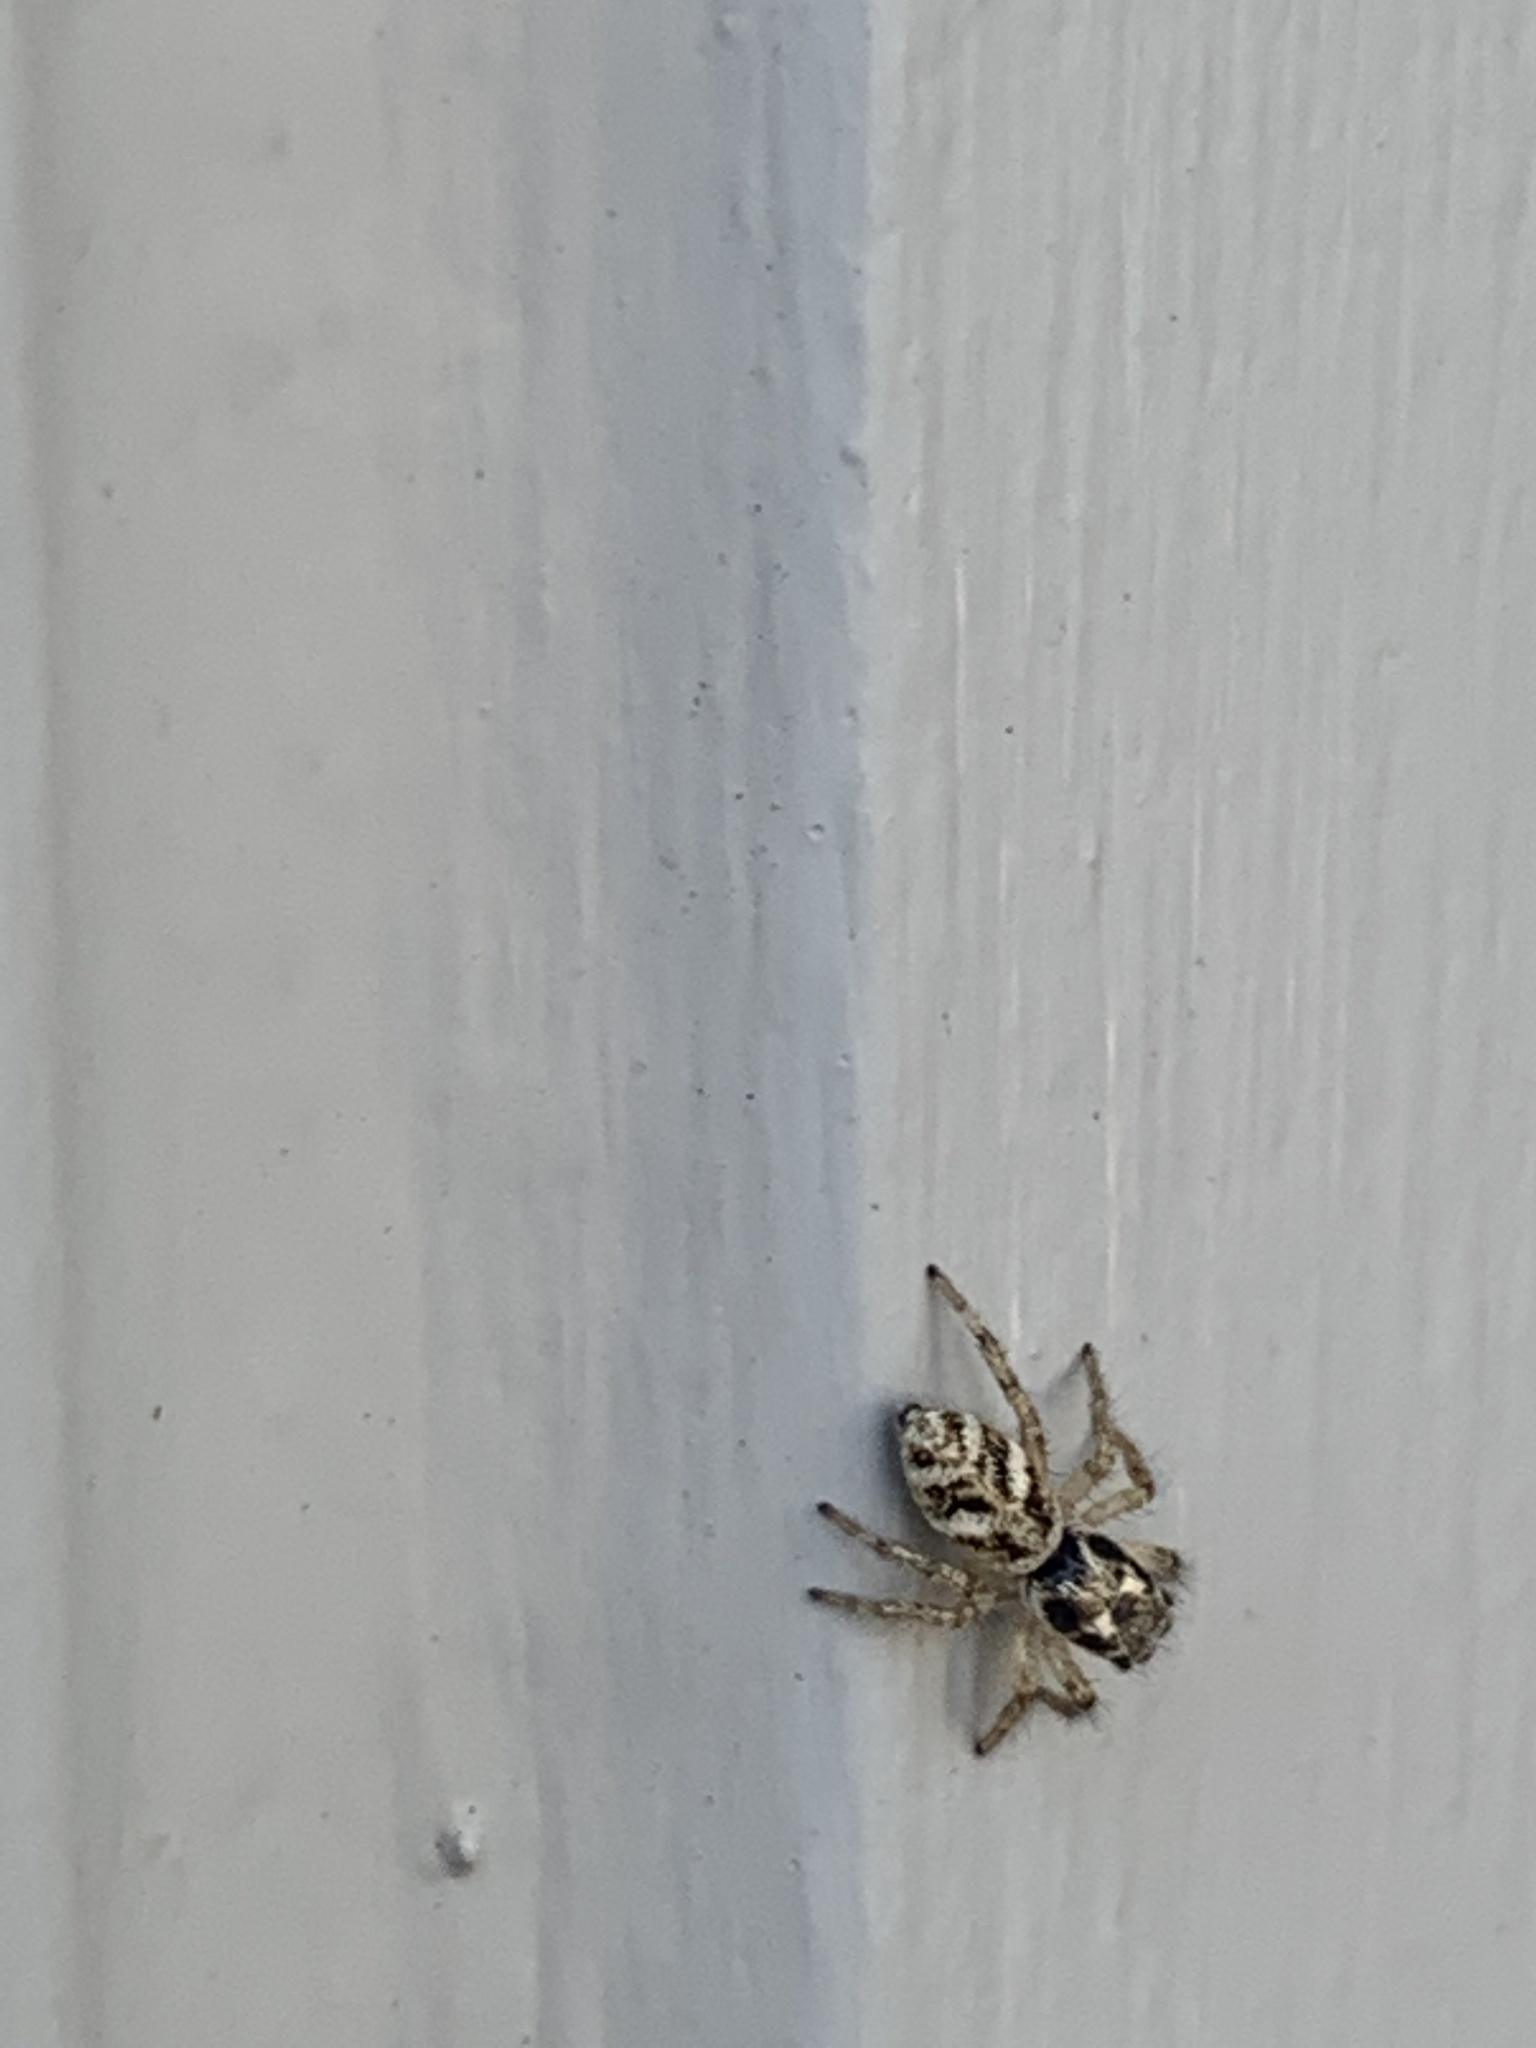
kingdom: Animalia
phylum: Arthropoda
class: Arachnida
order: Araneae
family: Salticidae
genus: Salticus
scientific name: Salticus scenicus
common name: Zebra jumper
